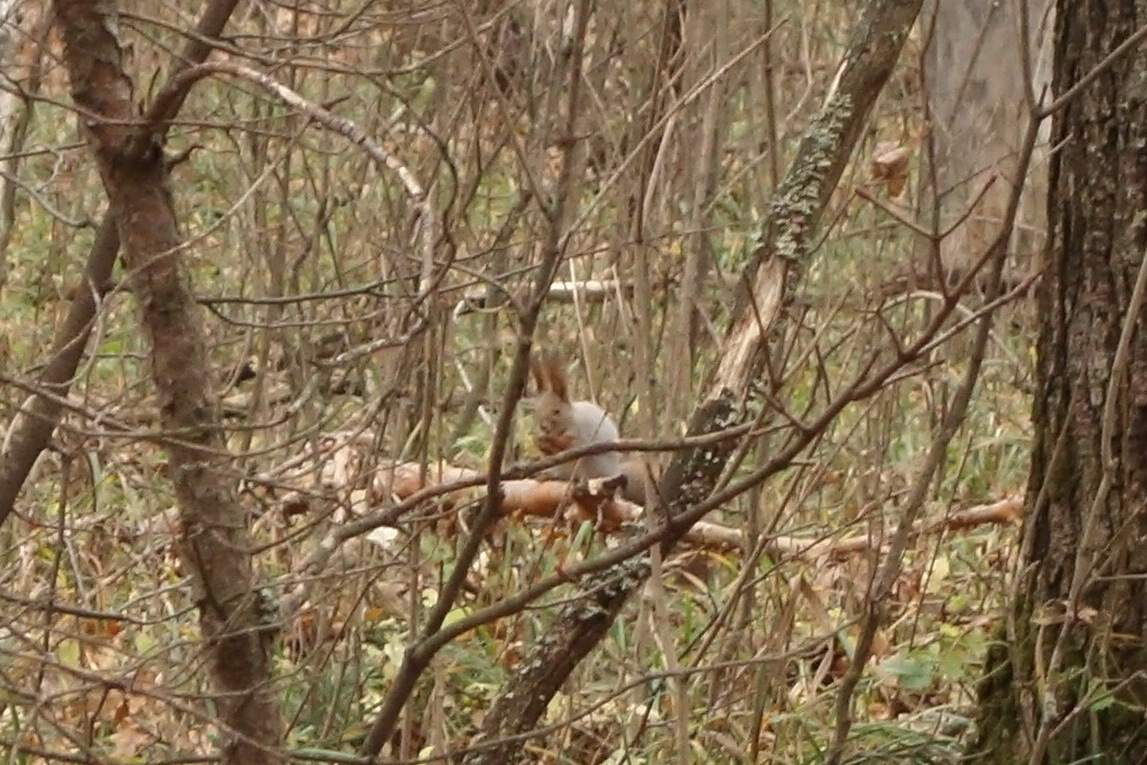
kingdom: Animalia
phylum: Chordata
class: Mammalia
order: Rodentia
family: Sciuridae
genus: Sciurus
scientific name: Sciurus vulgaris
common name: Eurasian red squirrel
